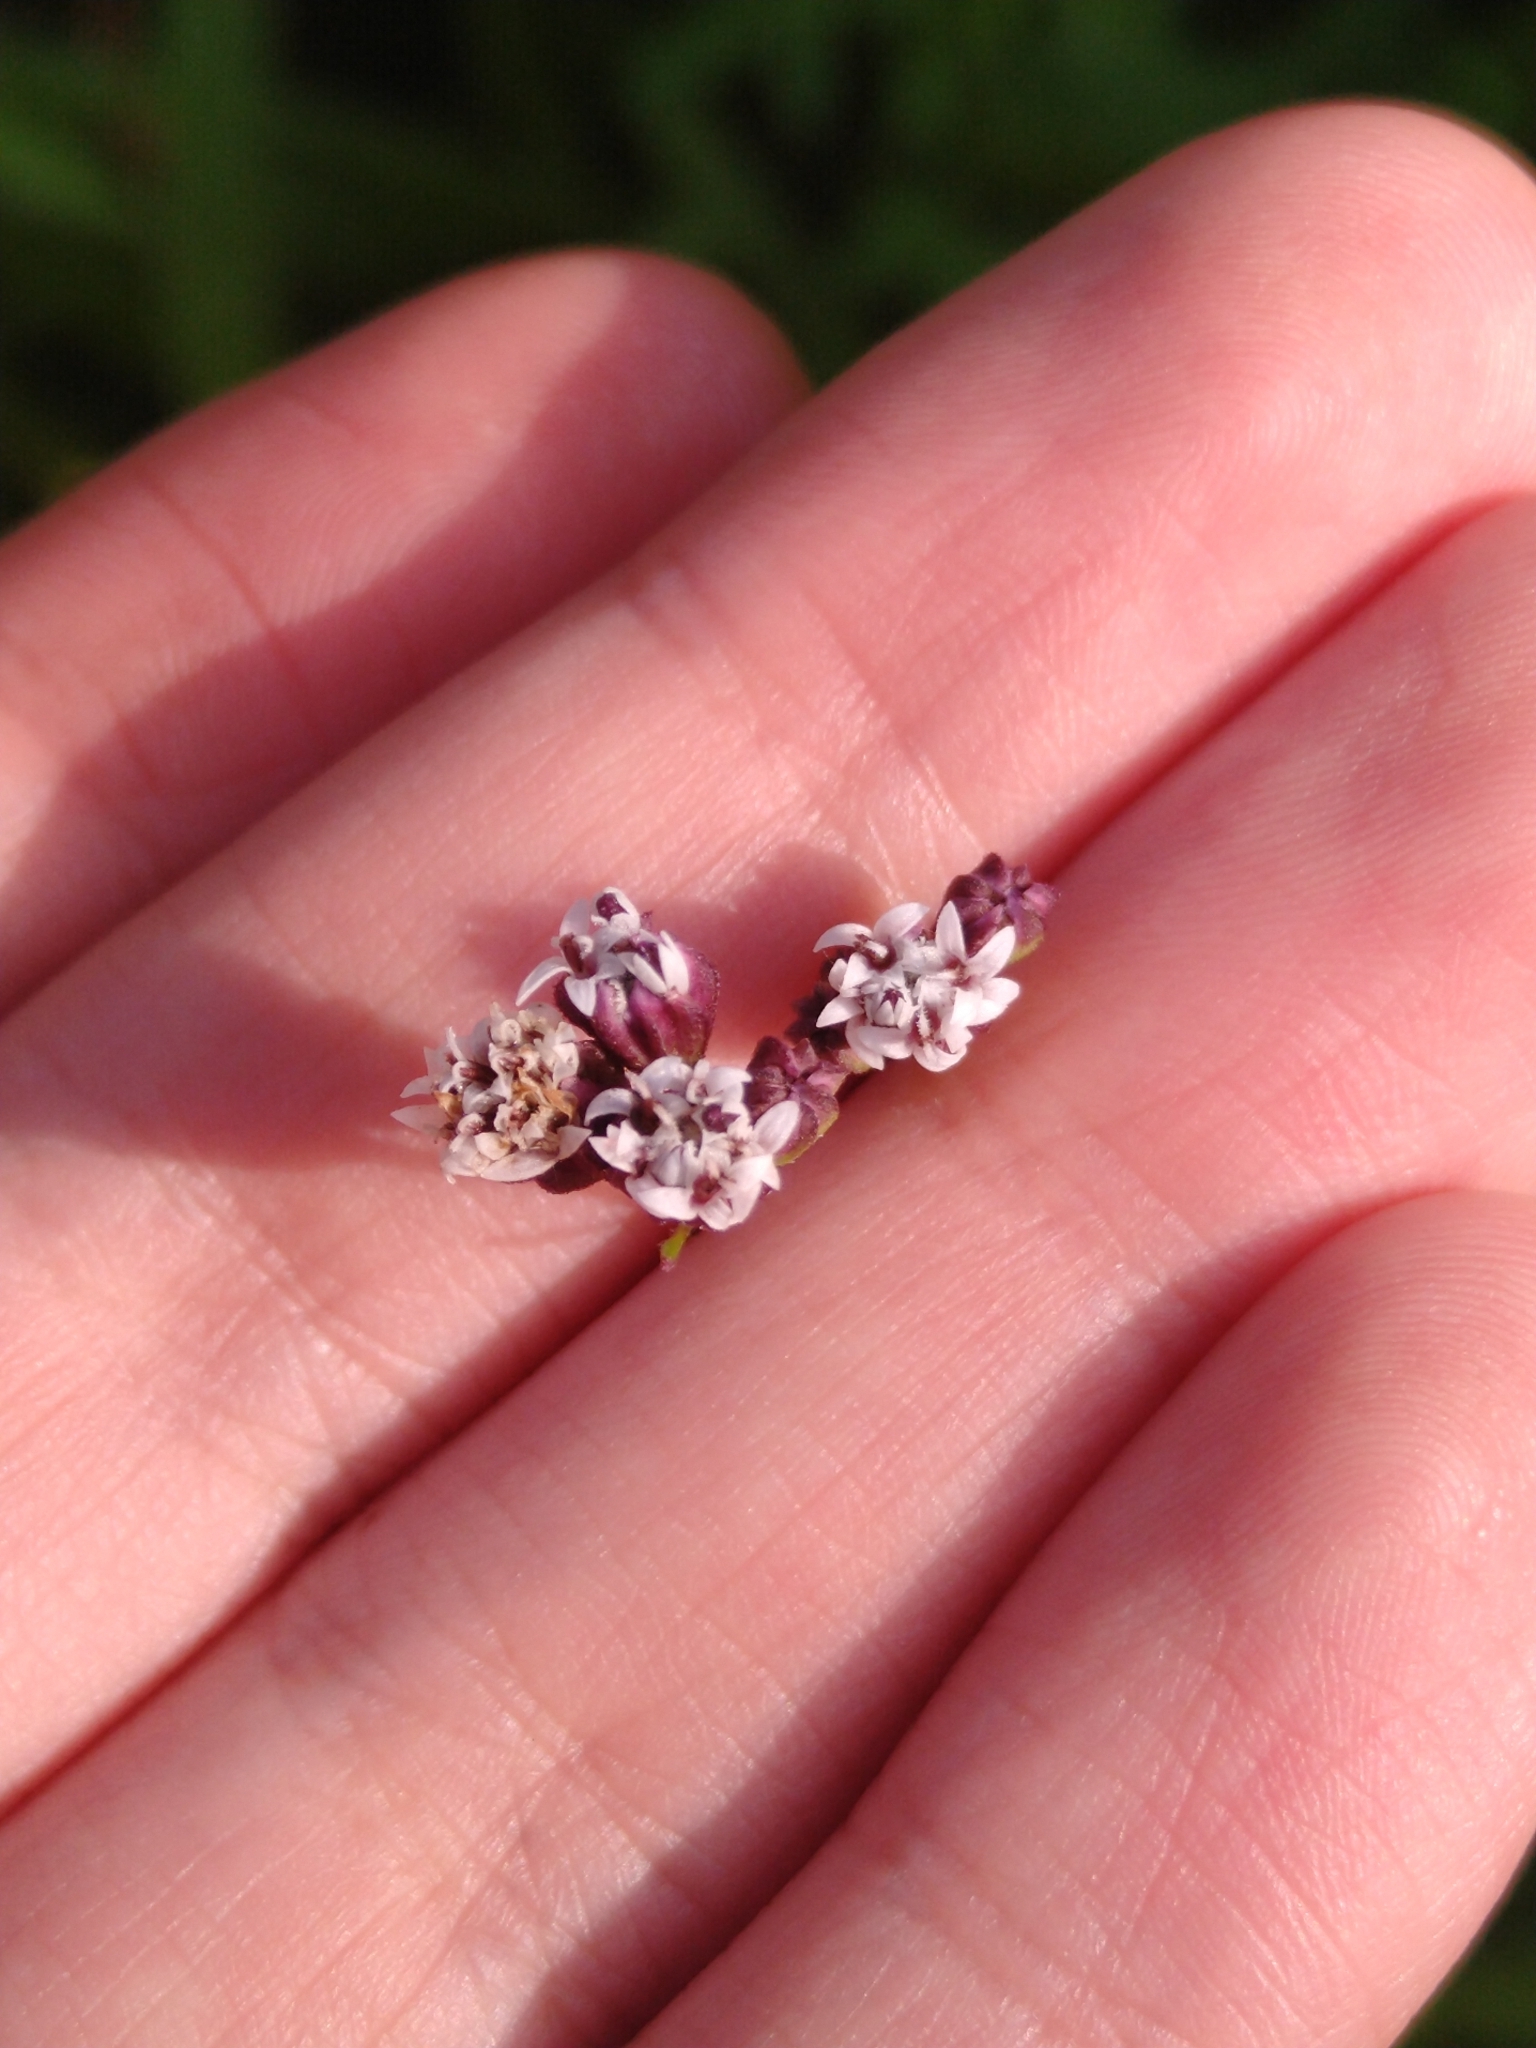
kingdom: Plantae
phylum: Tracheophyta
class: Magnoliopsida
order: Asterales
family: Asteraceae
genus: Florestina
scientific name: Florestina pedata
